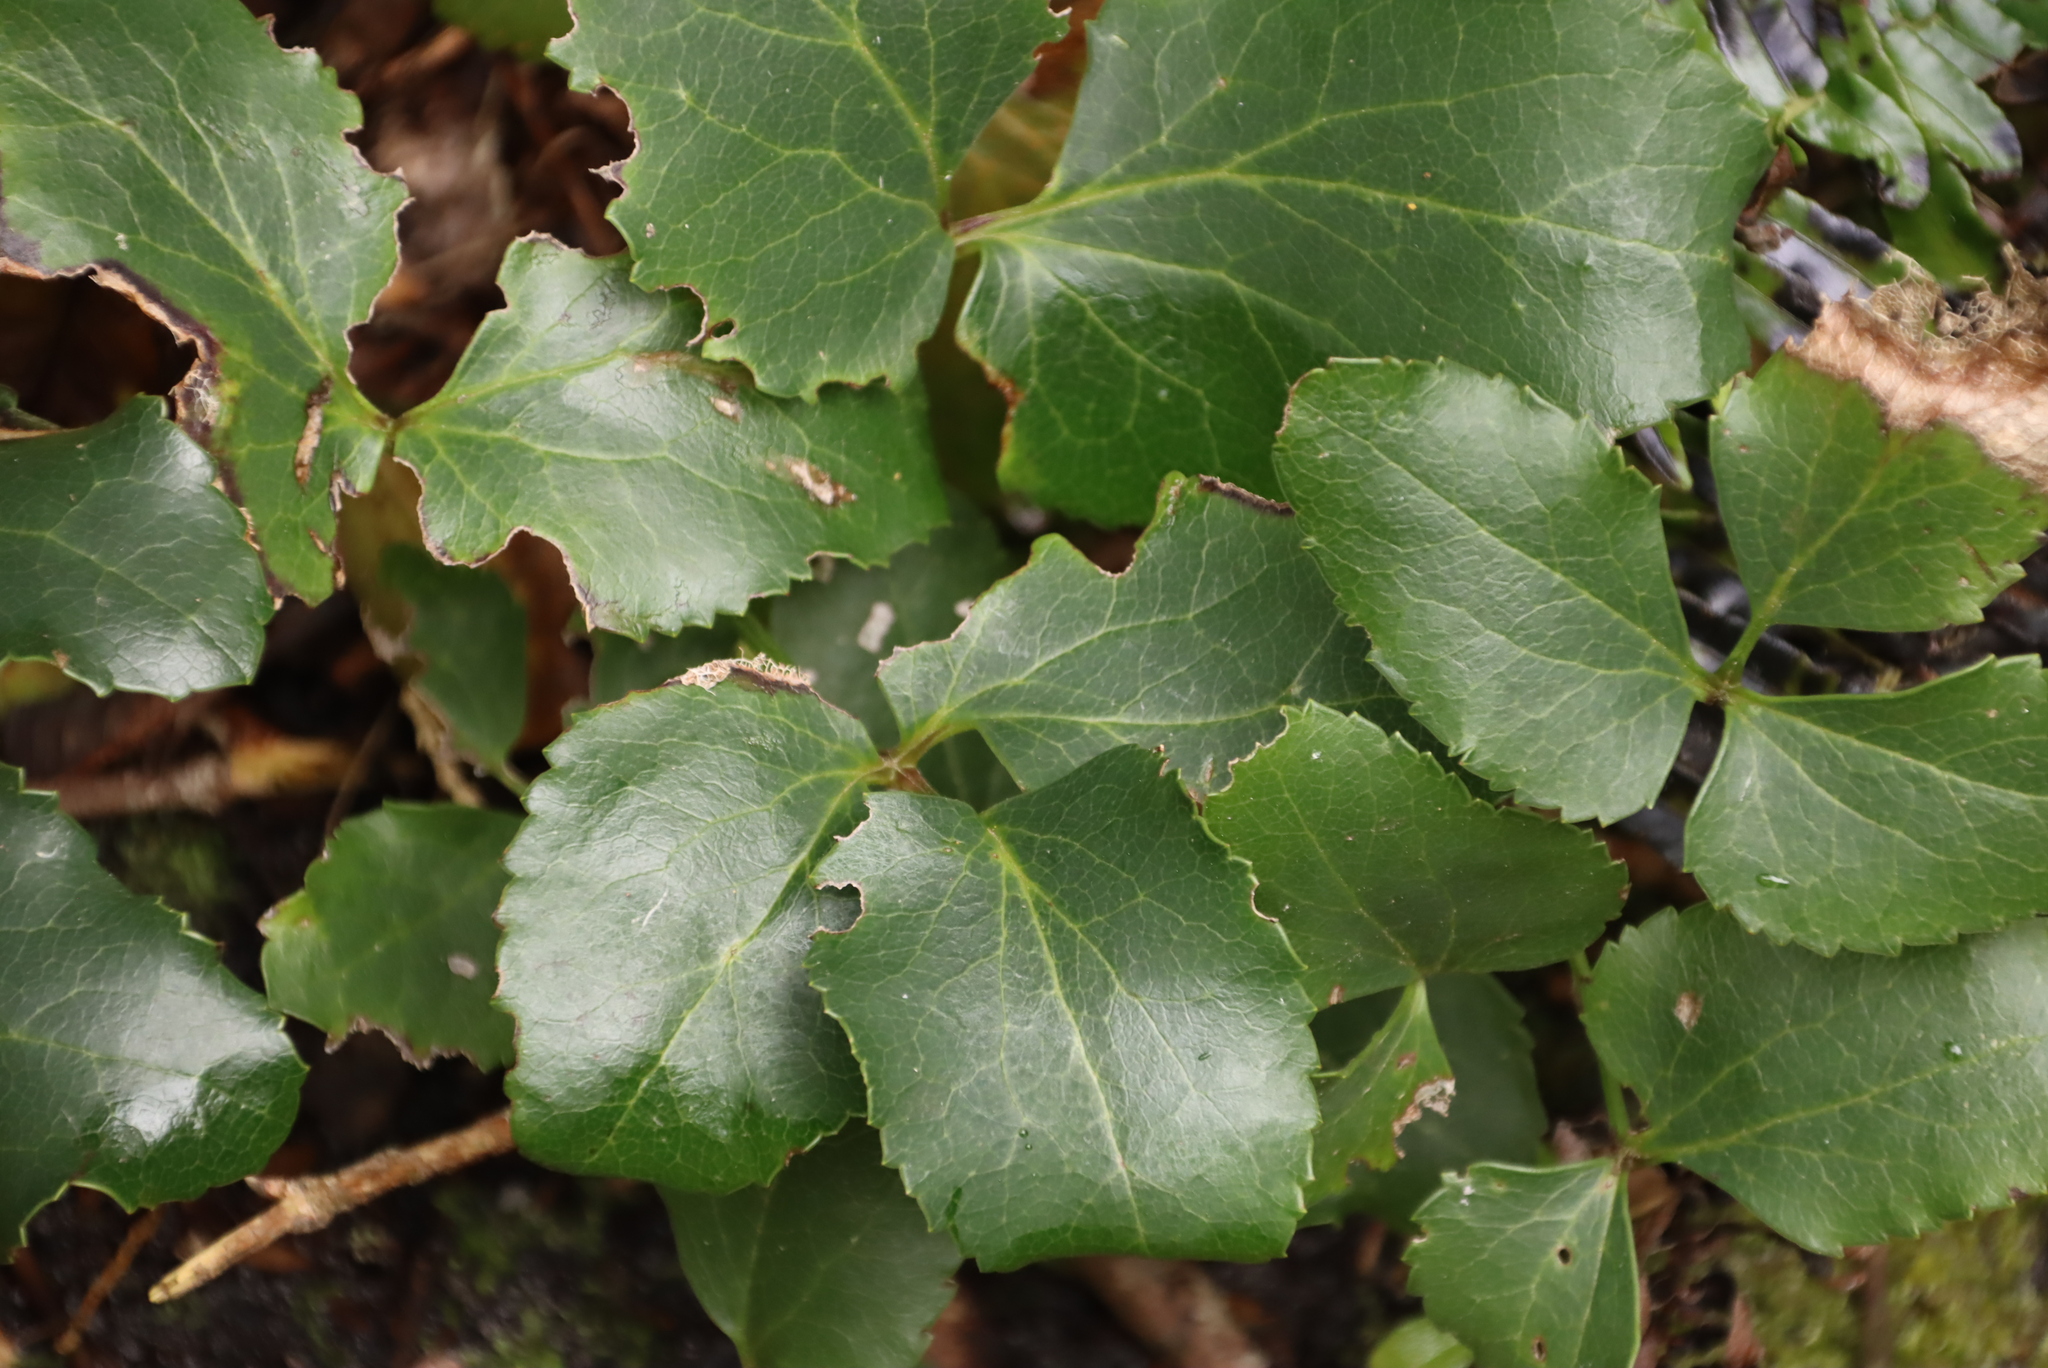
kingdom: Plantae
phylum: Tracheophyta
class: Magnoliopsida
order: Ranunculales
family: Ranunculaceae
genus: Knowltonia
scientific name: Knowltonia vesicatoria
